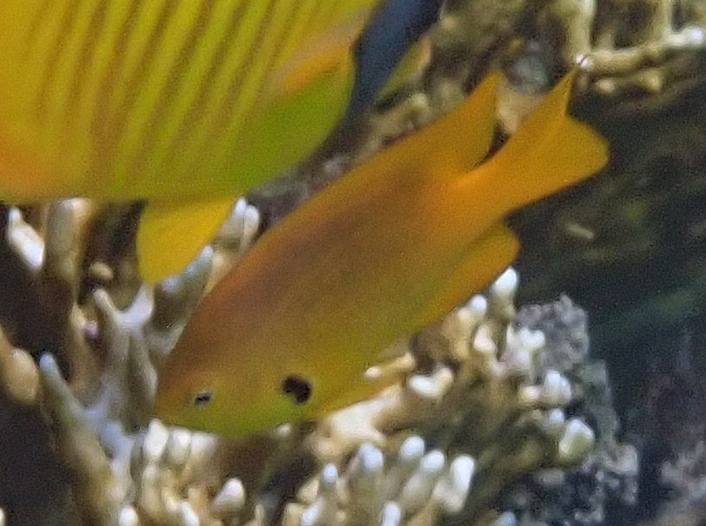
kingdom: Animalia
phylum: Chordata
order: Perciformes
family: Pomacentridae
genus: Pomacentrus
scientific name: Pomacentrus sulfureus
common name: Sulfur damsel
